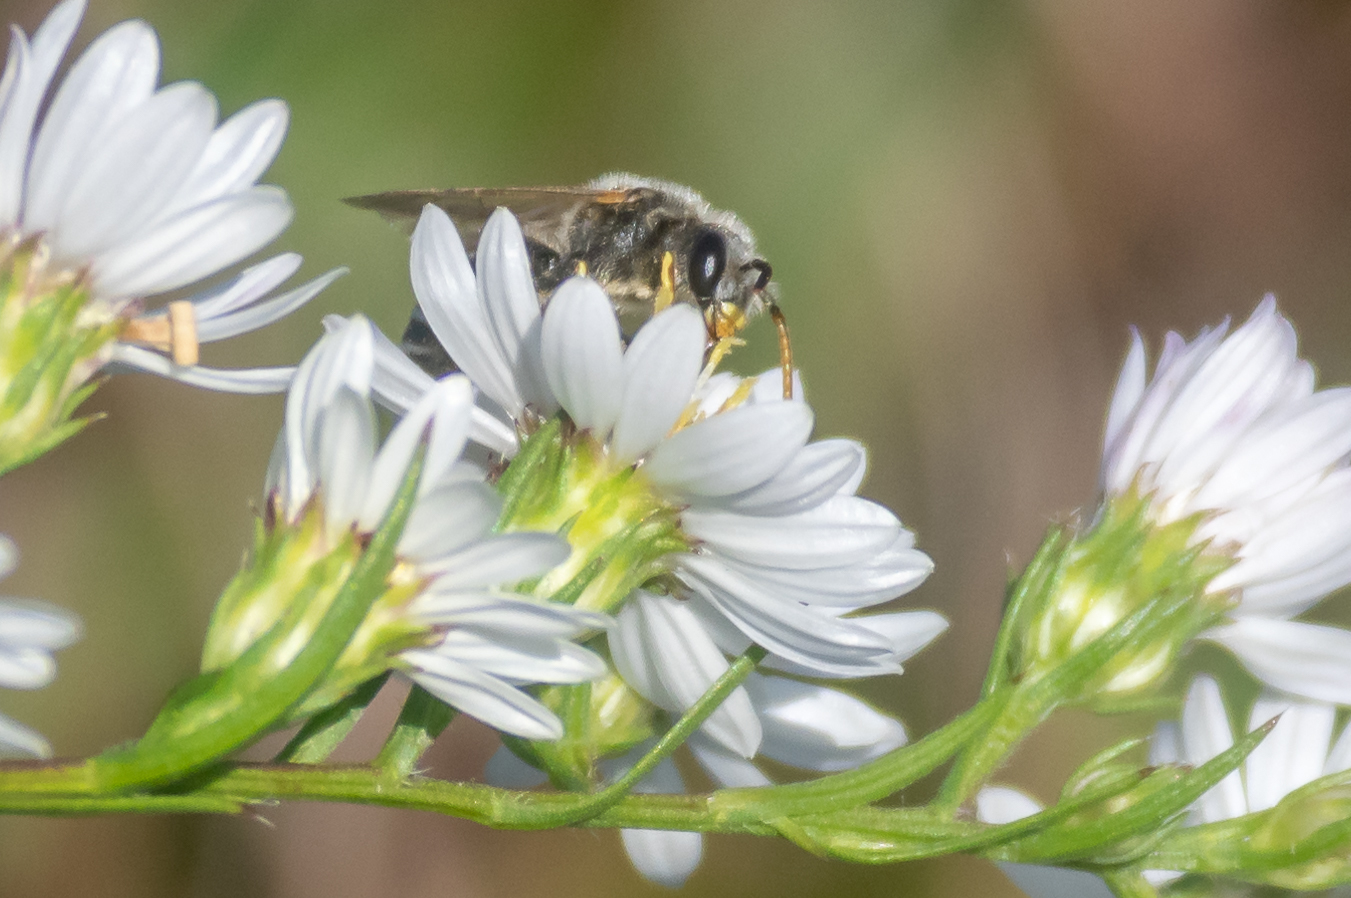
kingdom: Animalia
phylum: Arthropoda
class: Insecta
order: Hymenoptera
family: Halictidae
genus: Halictus
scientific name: Halictus ligatus
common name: Ligated furrow bee
